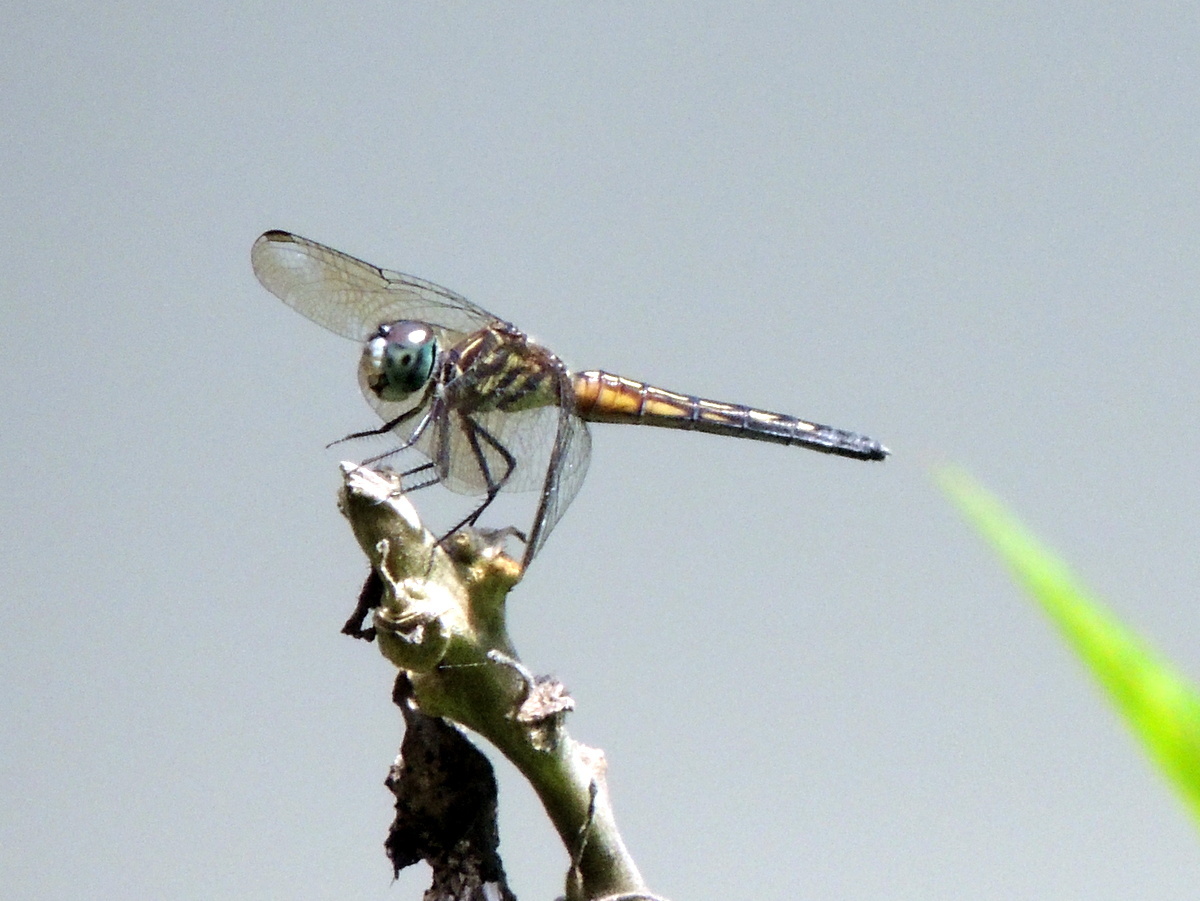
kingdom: Animalia
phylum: Arthropoda
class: Insecta
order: Odonata
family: Libellulidae
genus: Pachydiplax
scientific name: Pachydiplax longipennis
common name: Blue dasher
